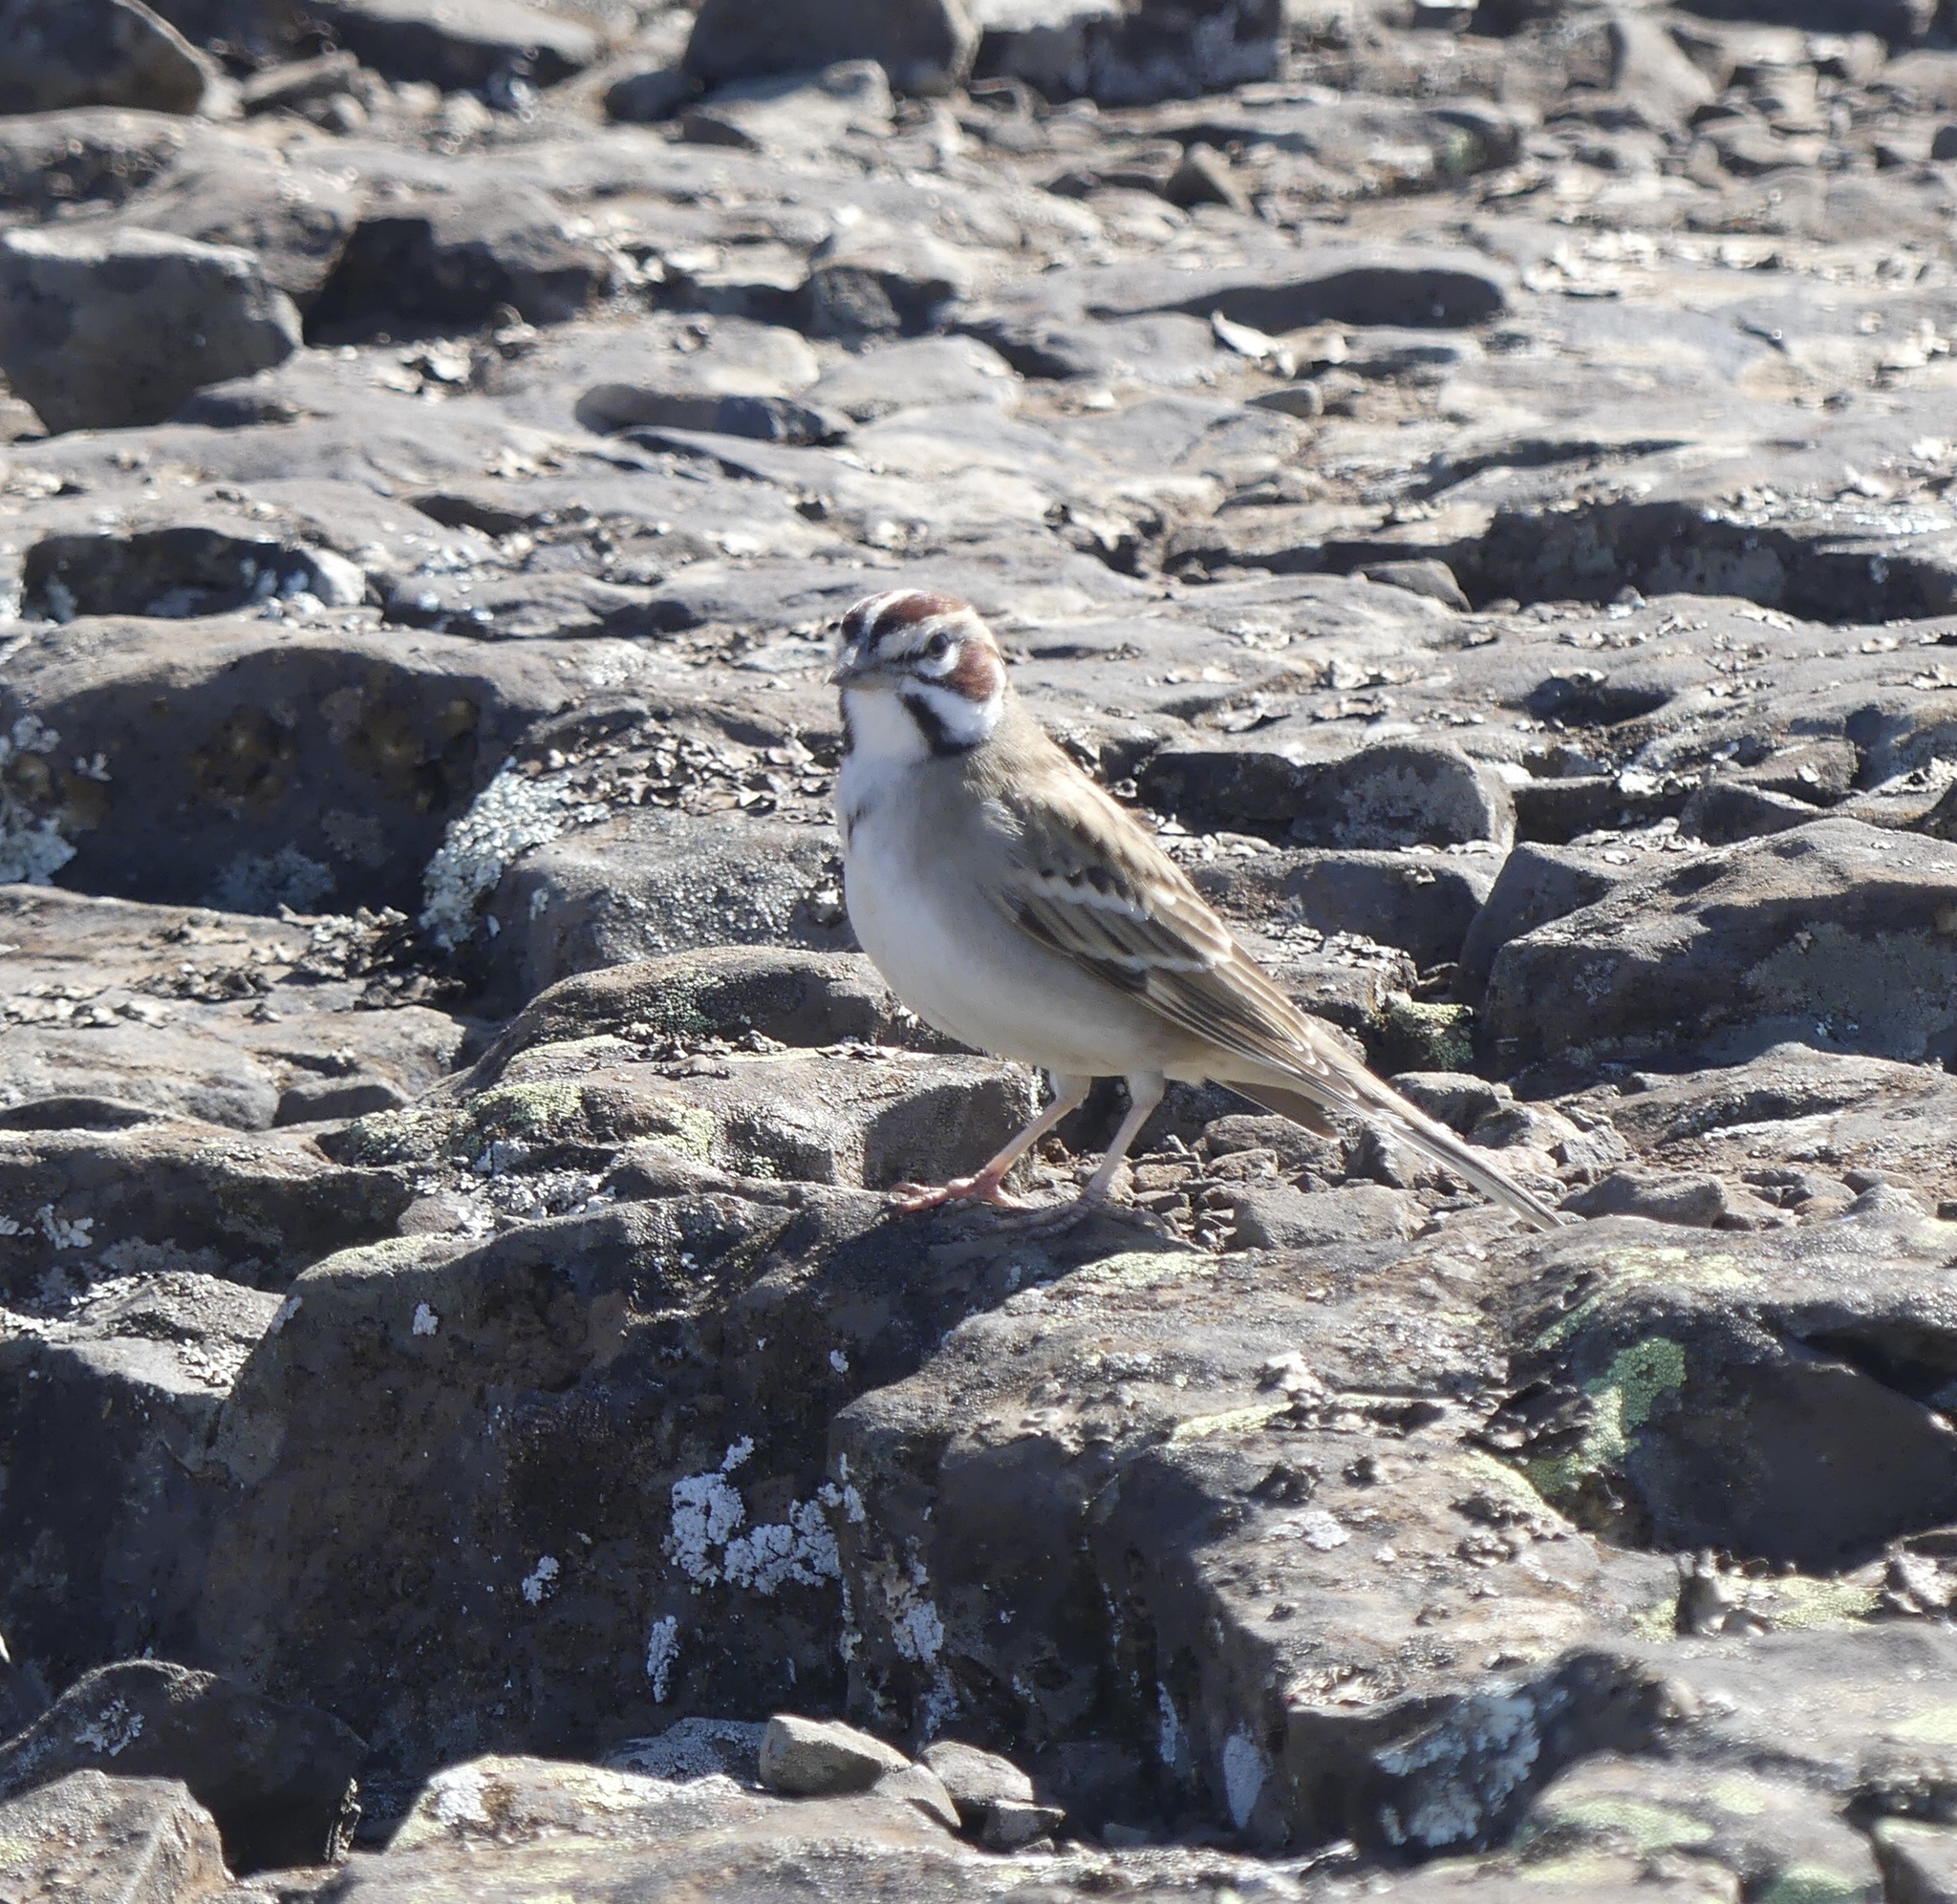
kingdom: Animalia
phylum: Chordata
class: Aves
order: Passeriformes
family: Passerellidae
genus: Chondestes
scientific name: Chondestes grammacus
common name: Lark sparrow
